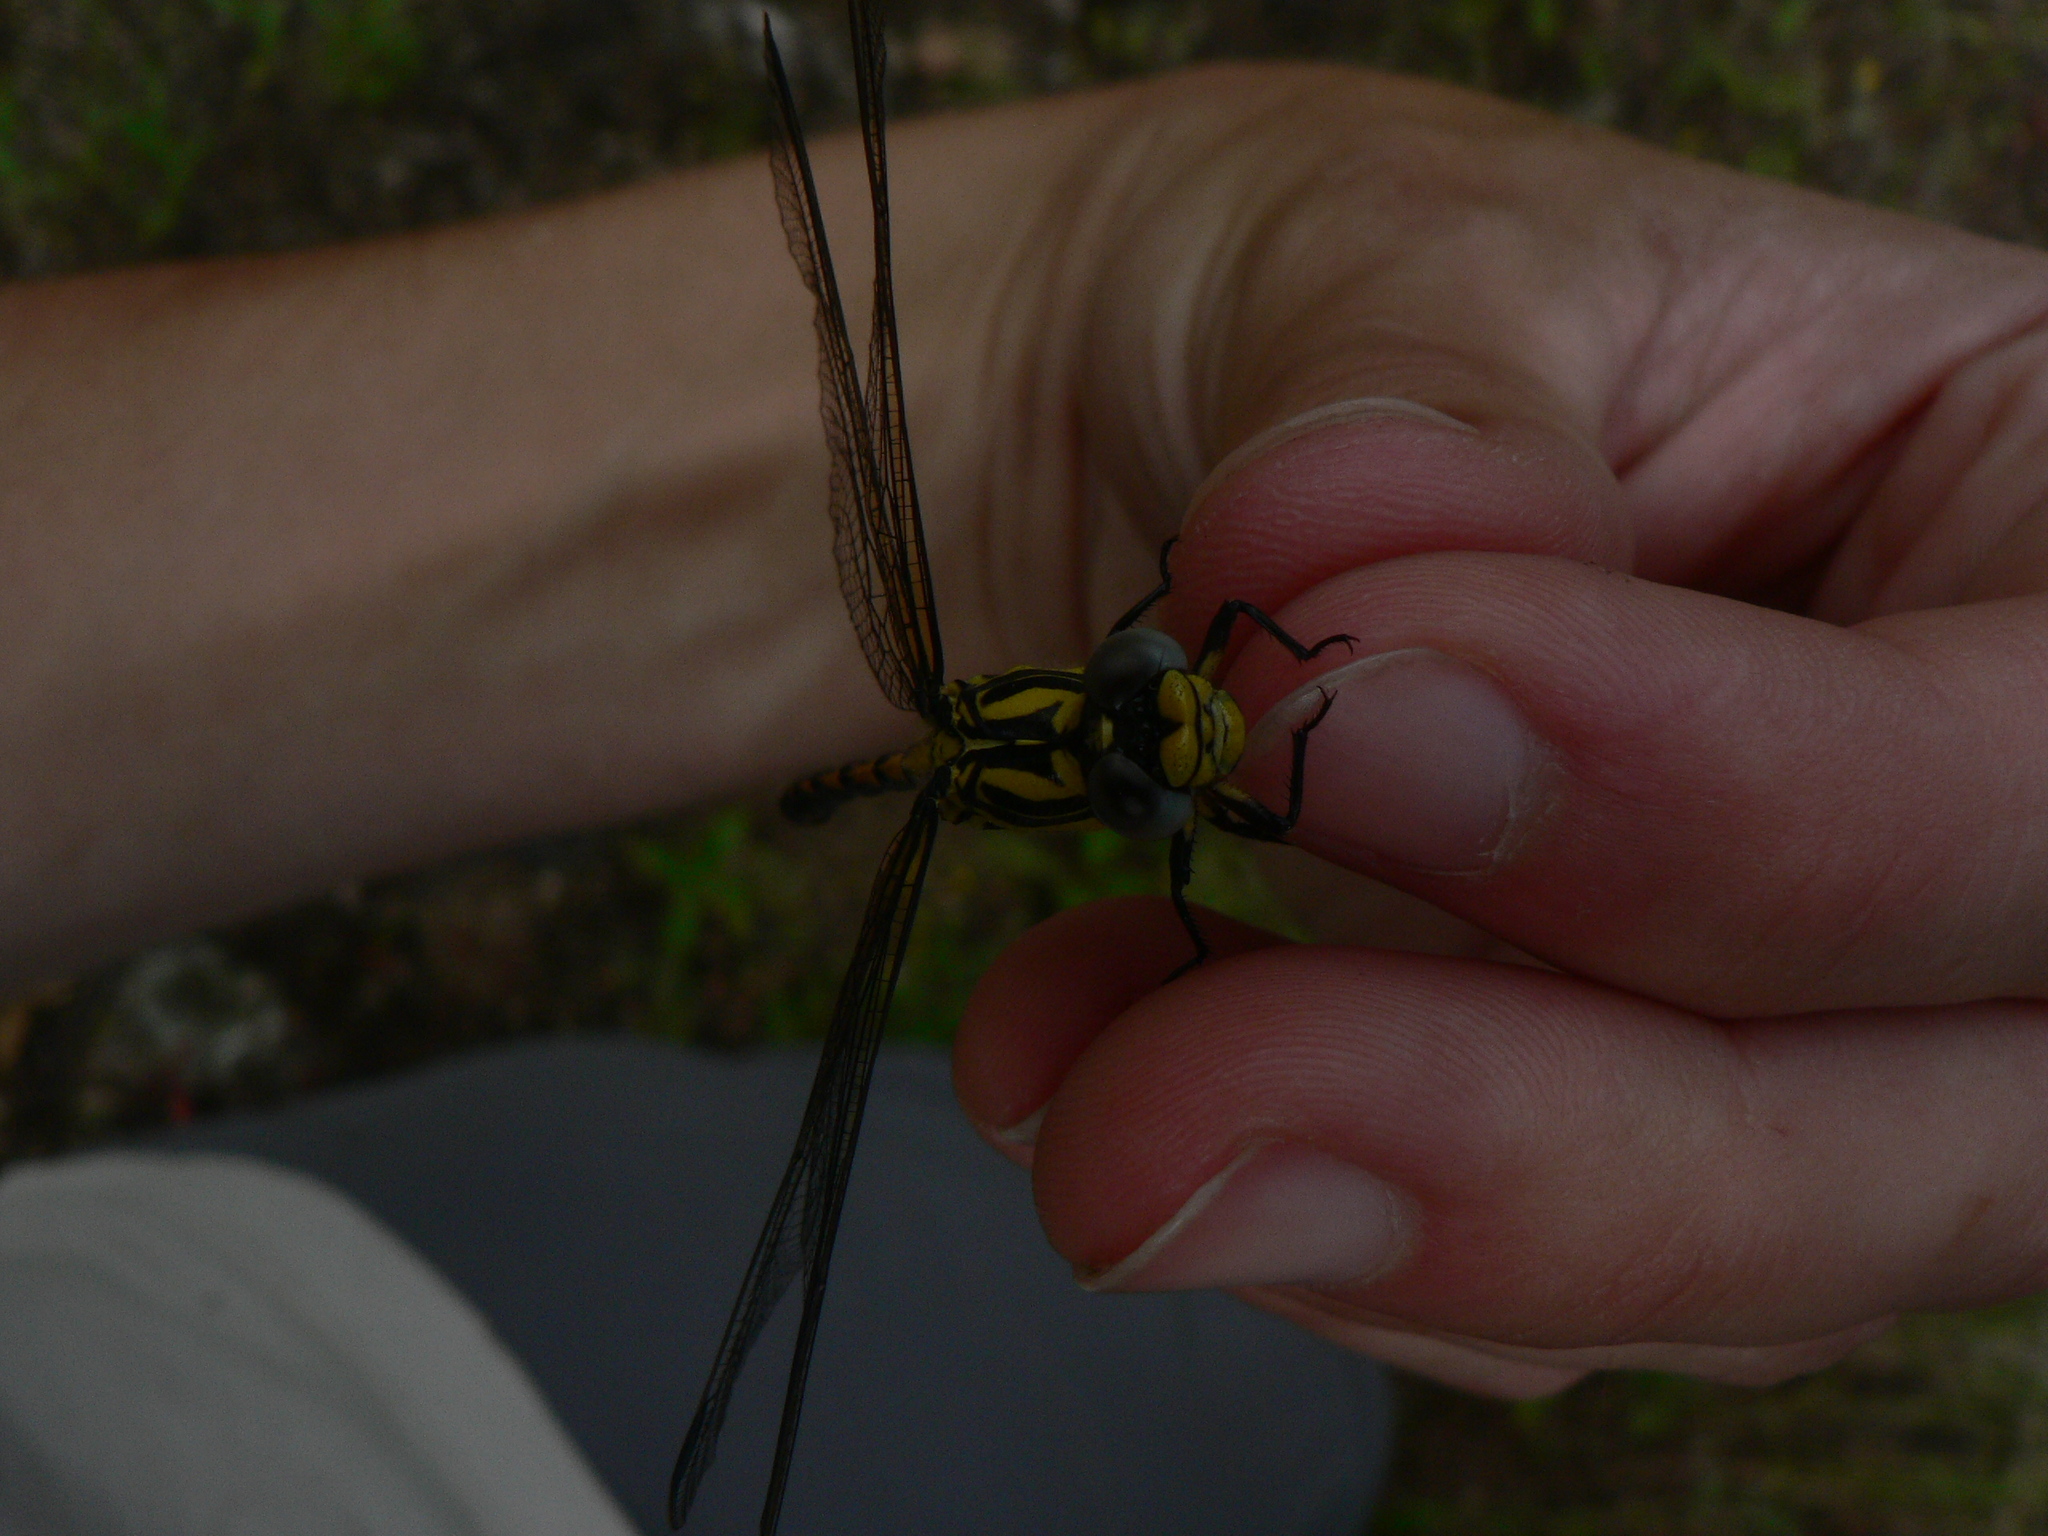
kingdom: Animalia
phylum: Arthropoda
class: Insecta
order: Odonata
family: Gomphidae
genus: Onychogomphus
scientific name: Onychogomphus uncatus
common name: Large pincertail
